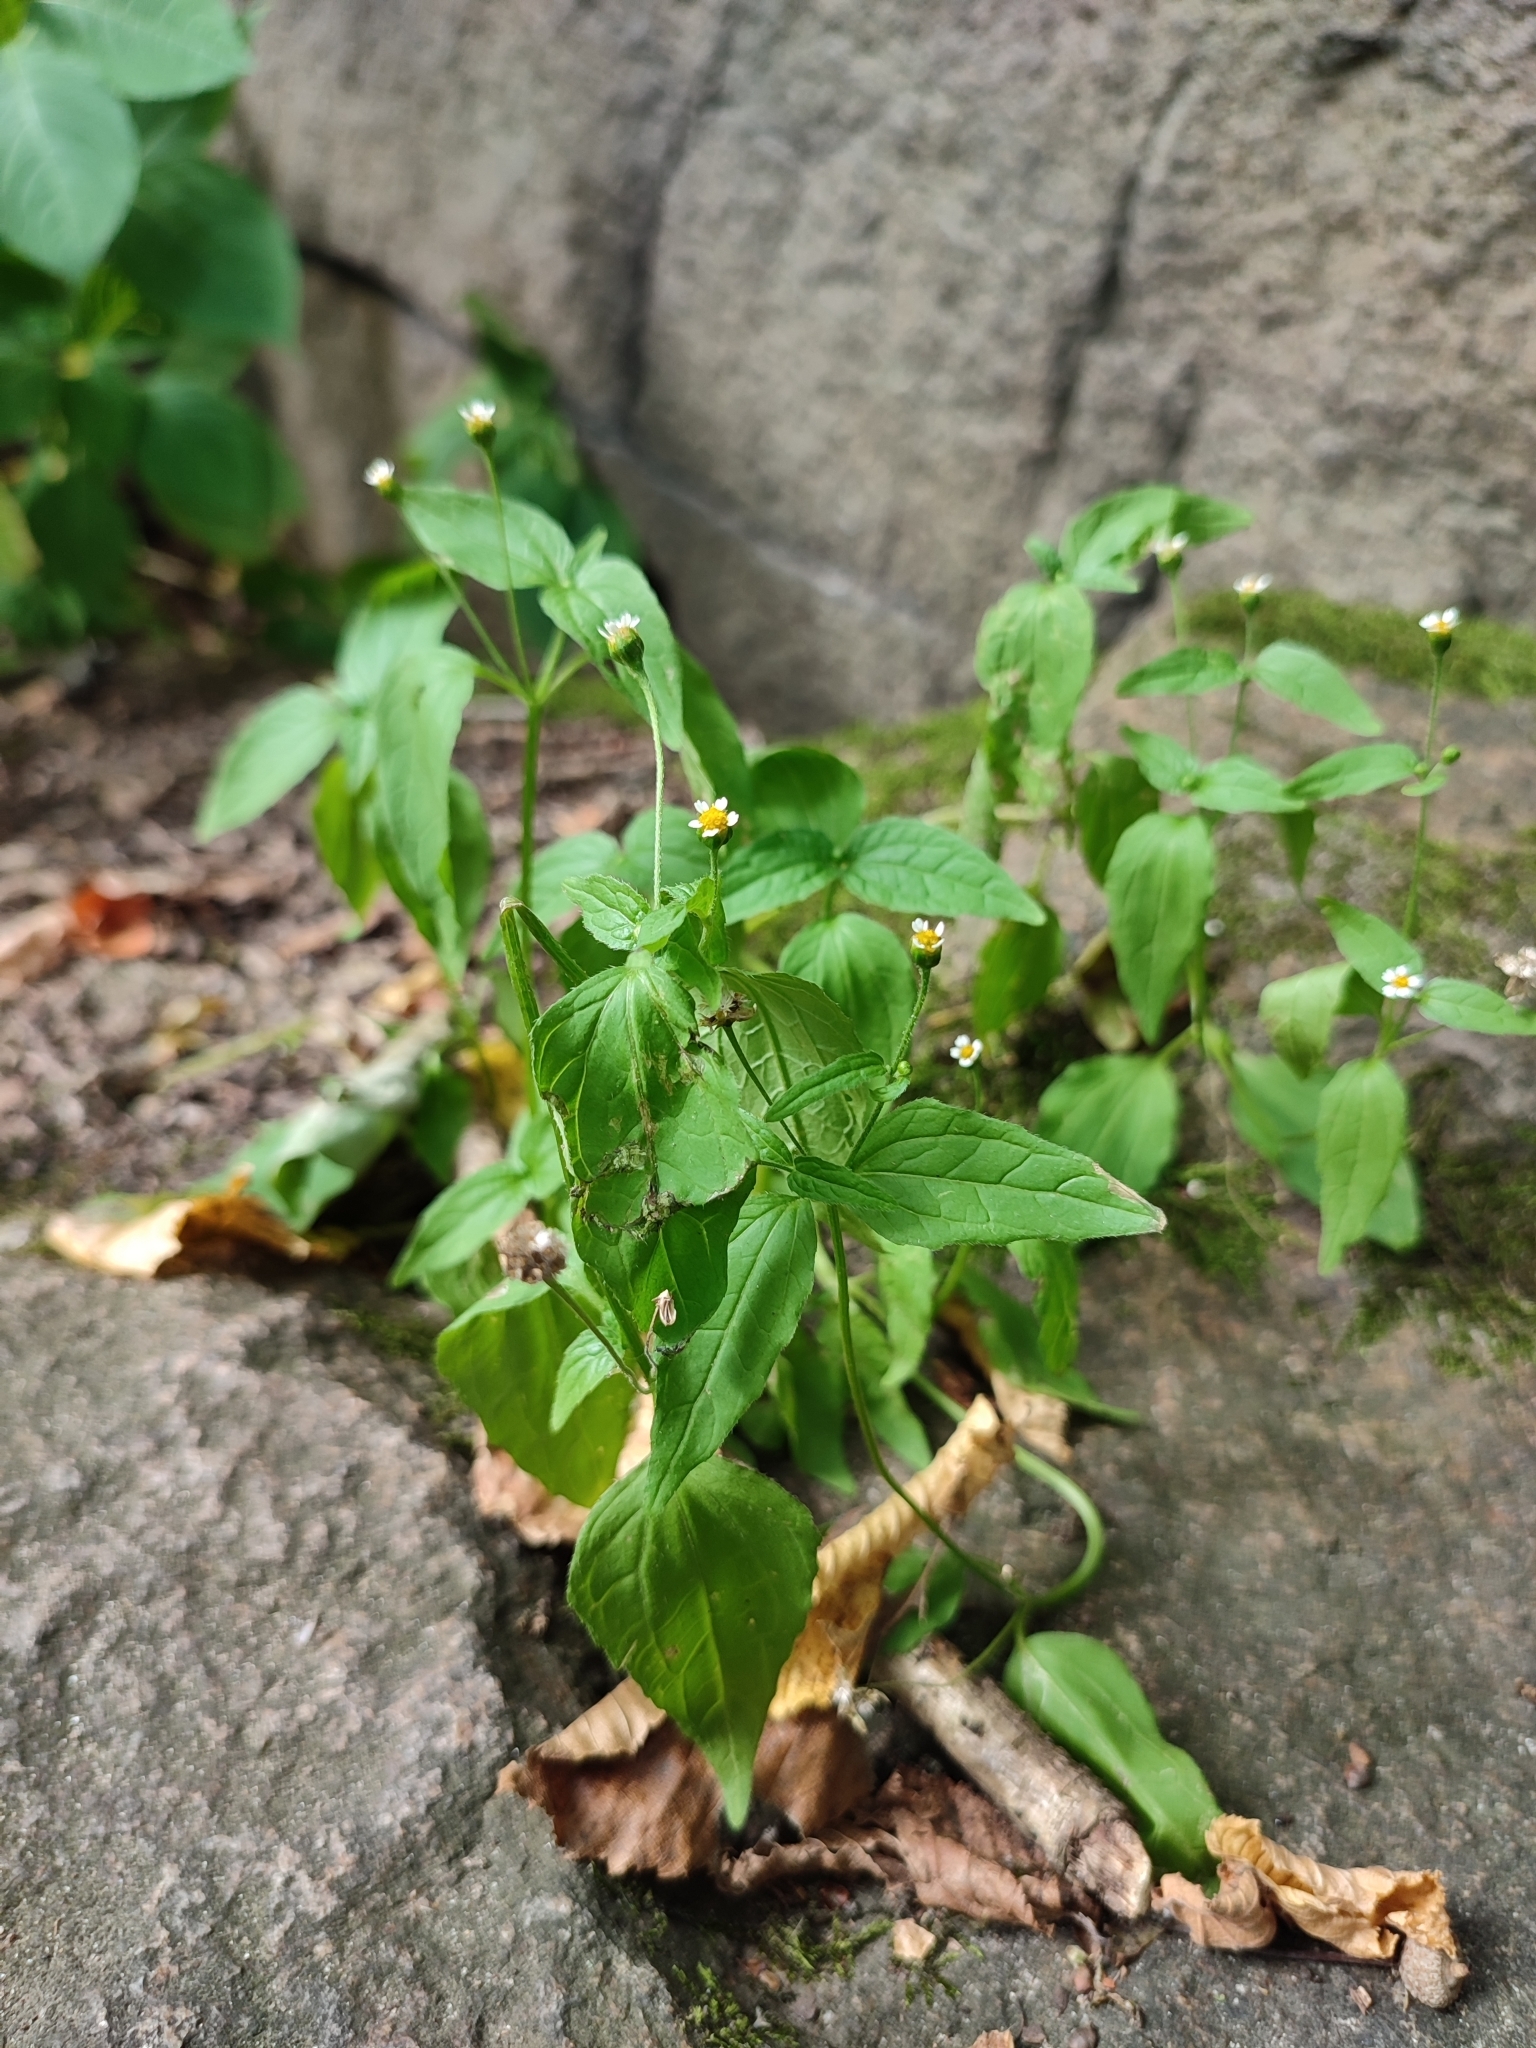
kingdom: Plantae
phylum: Tracheophyta
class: Magnoliopsida
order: Asterales
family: Asteraceae
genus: Galinsoga
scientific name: Galinsoga parviflora
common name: Gallant soldier
